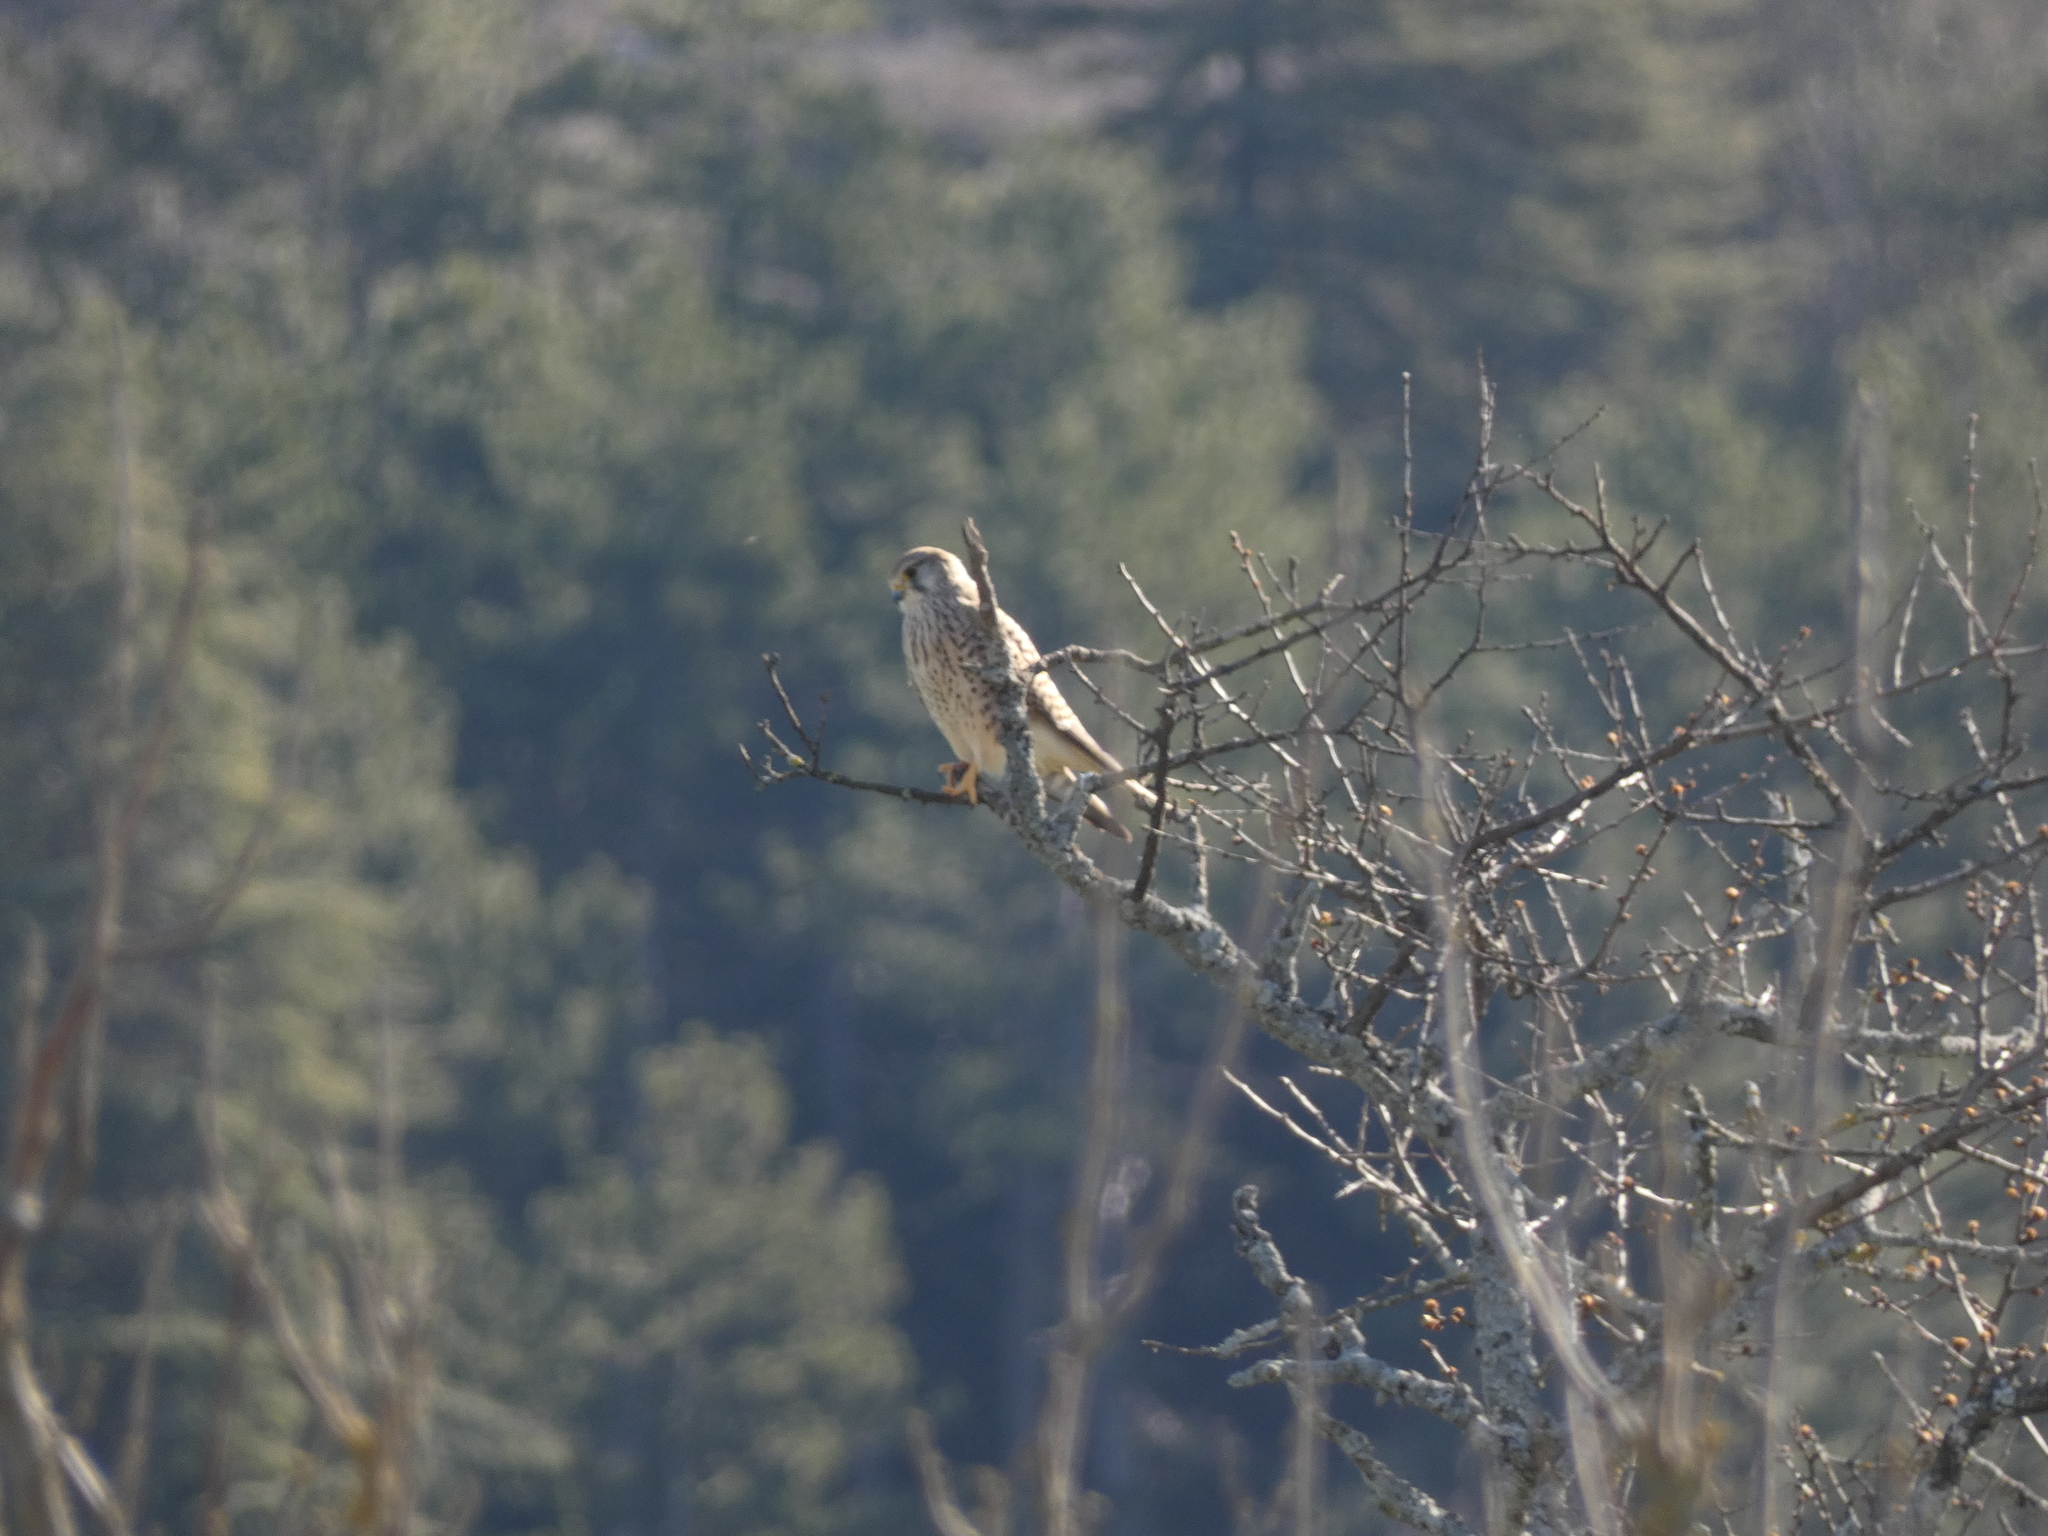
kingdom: Animalia
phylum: Chordata
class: Aves
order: Falconiformes
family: Falconidae
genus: Falco
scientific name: Falco tinnunculus
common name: Common kestrel
